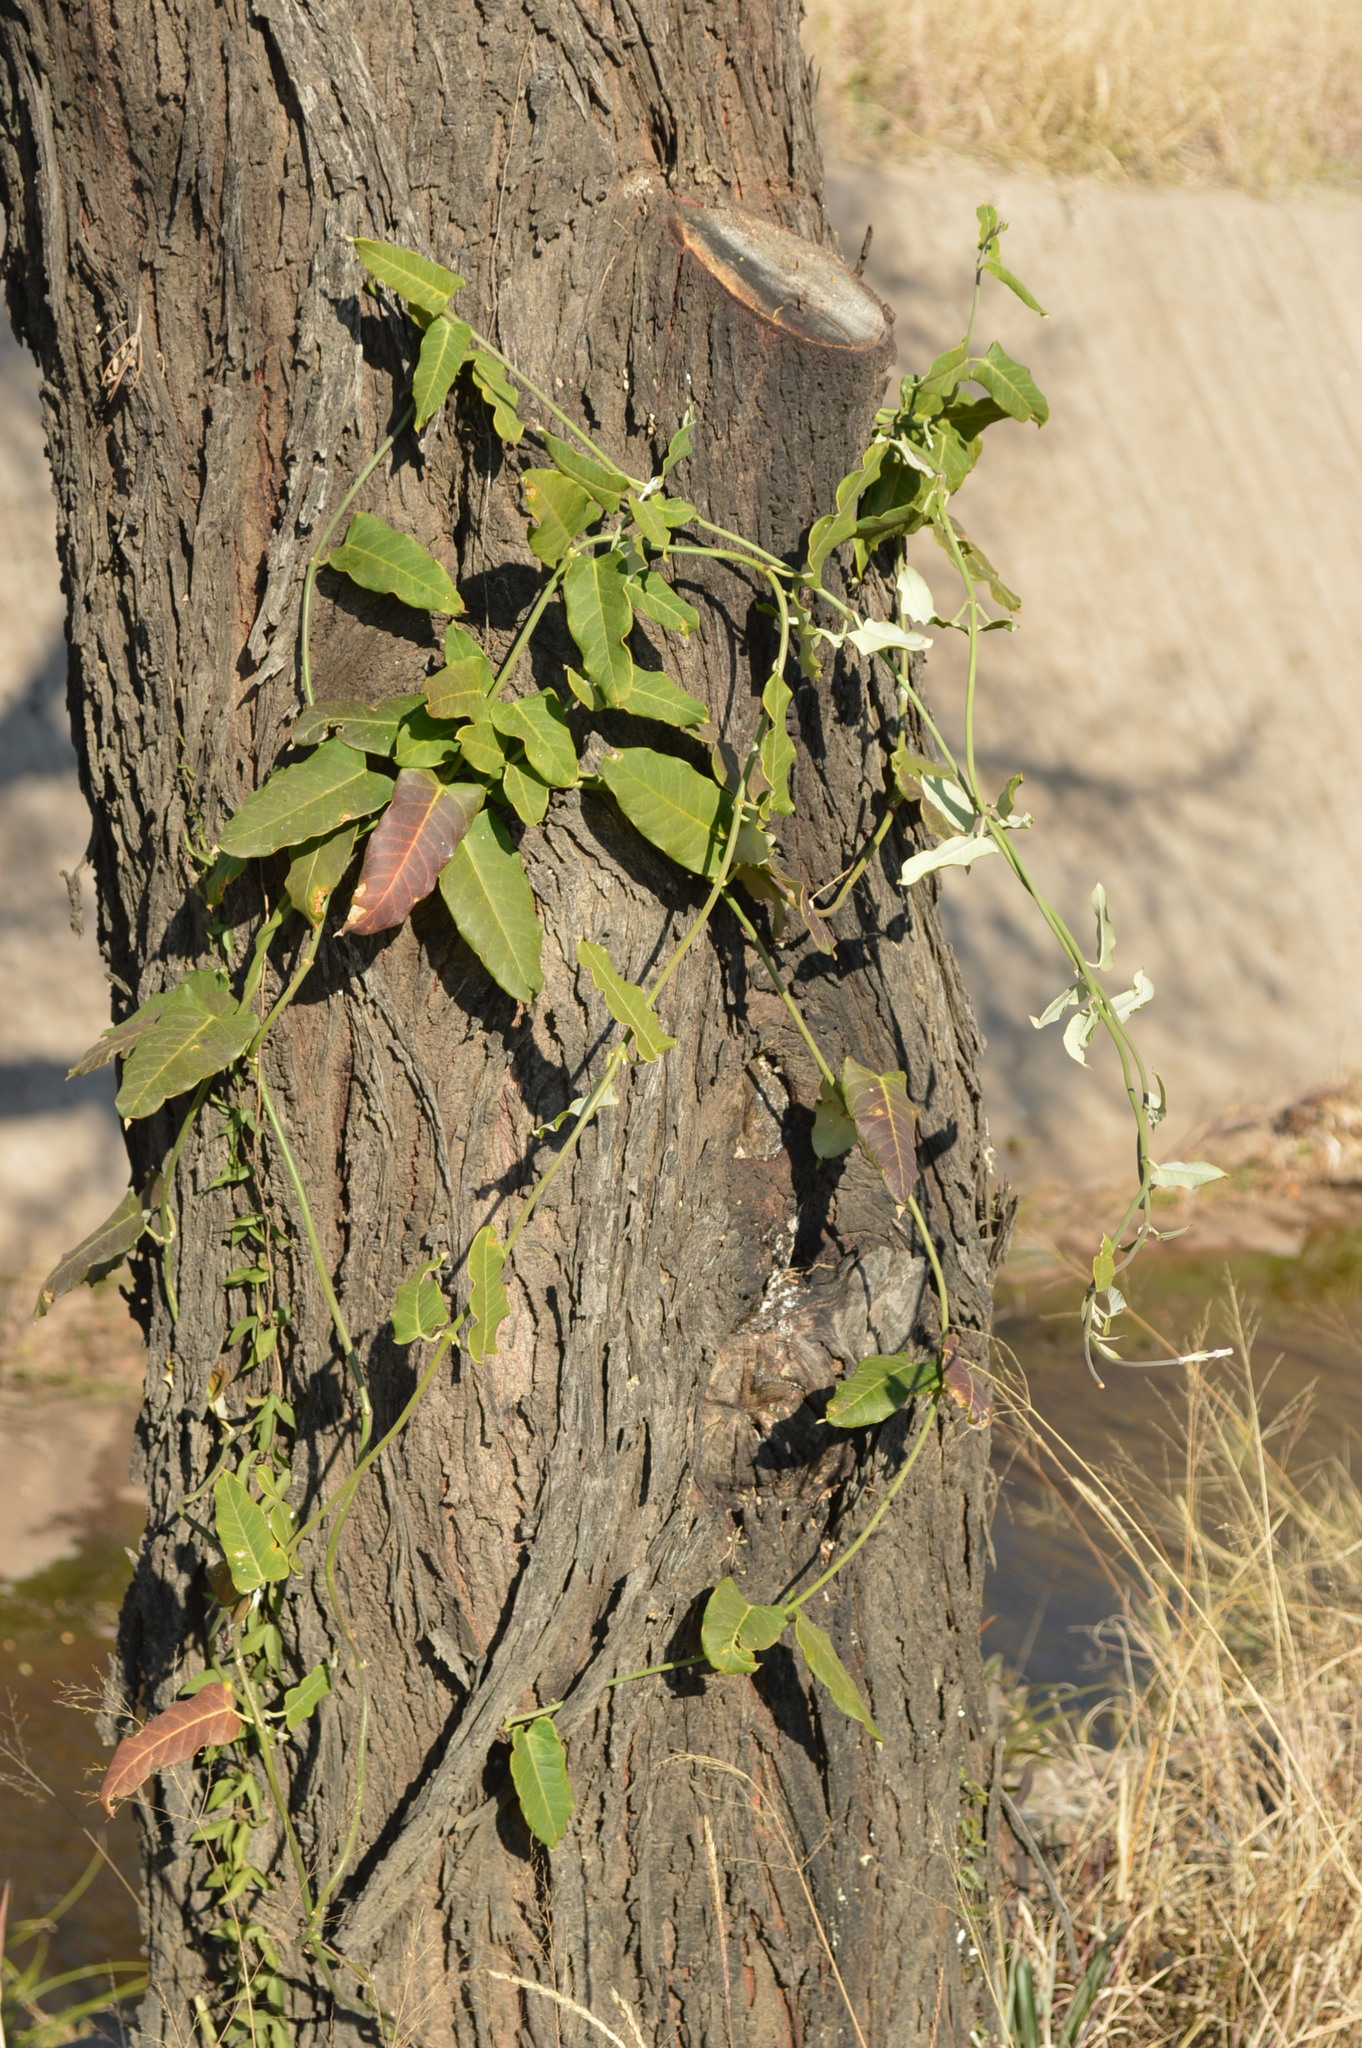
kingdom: Plantae
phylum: Tracheophyta
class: Magnoliopsida
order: Gentianales
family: Apocynaceae
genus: Araujia
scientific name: Araujia sericifera
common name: White bladderflower
